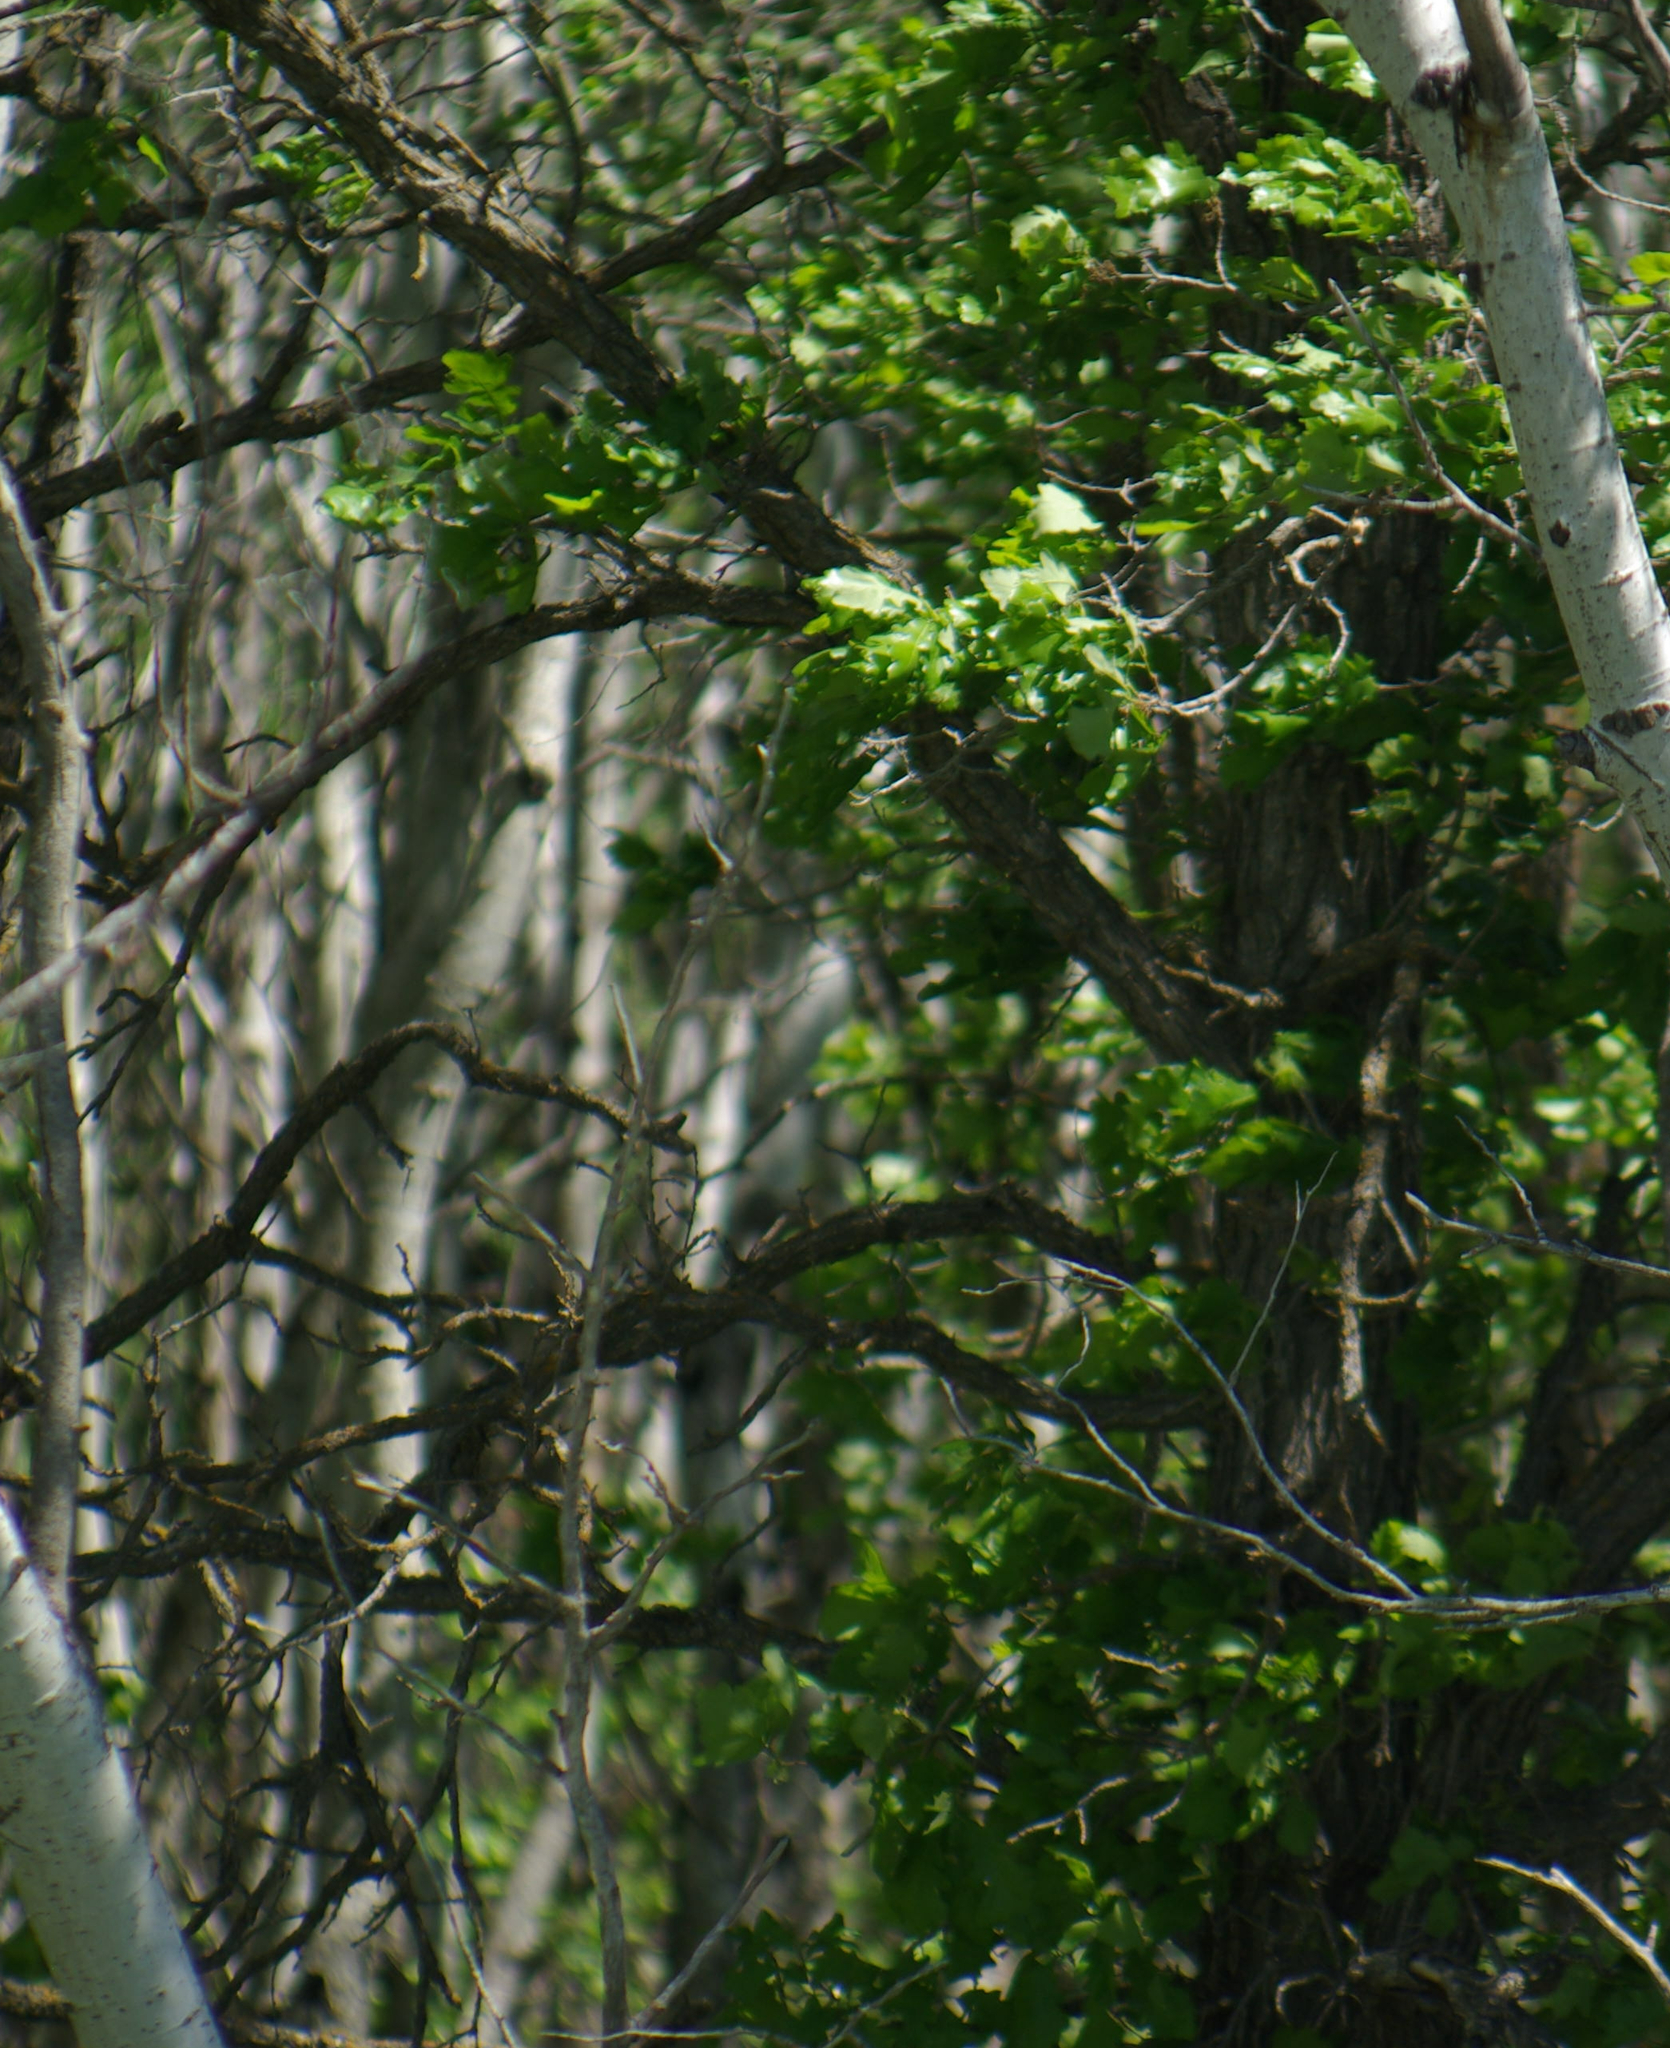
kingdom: Plantae
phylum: Tracheophyta
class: Magnoliopsida
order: Fagales
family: Fagaceae
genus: Quercus
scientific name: Quercus macrocarpa
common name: Bur oak
